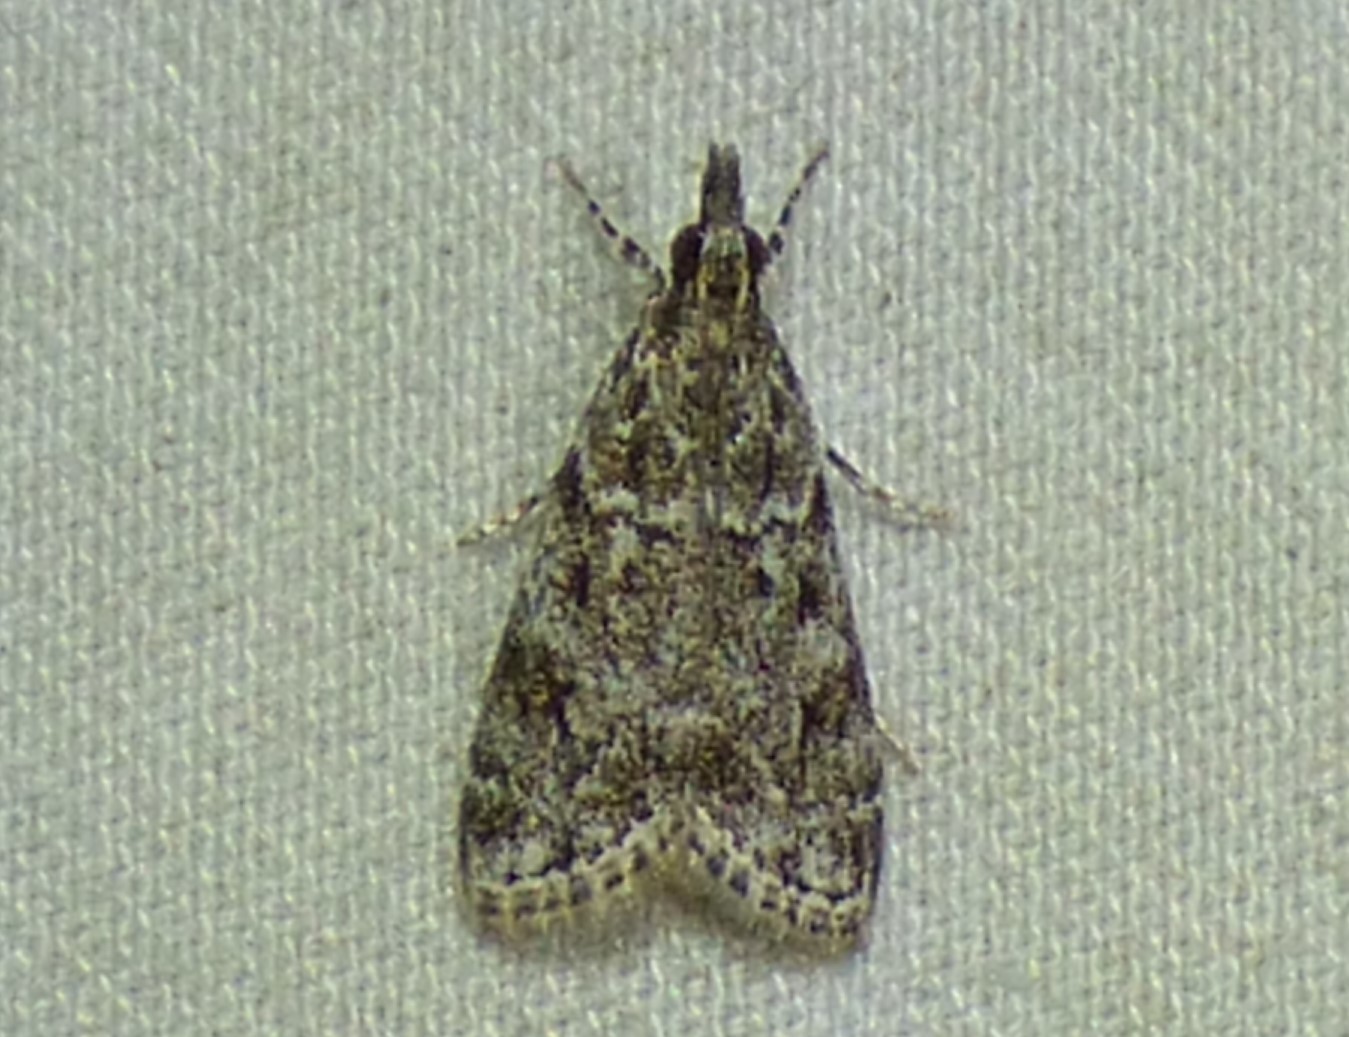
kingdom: Animalia
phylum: Arthropoda
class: Insecta
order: Lepidoptera
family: Crambidae
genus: Eudonia
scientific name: Eudonia heterosalis
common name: Mcdunnough's eudonia
